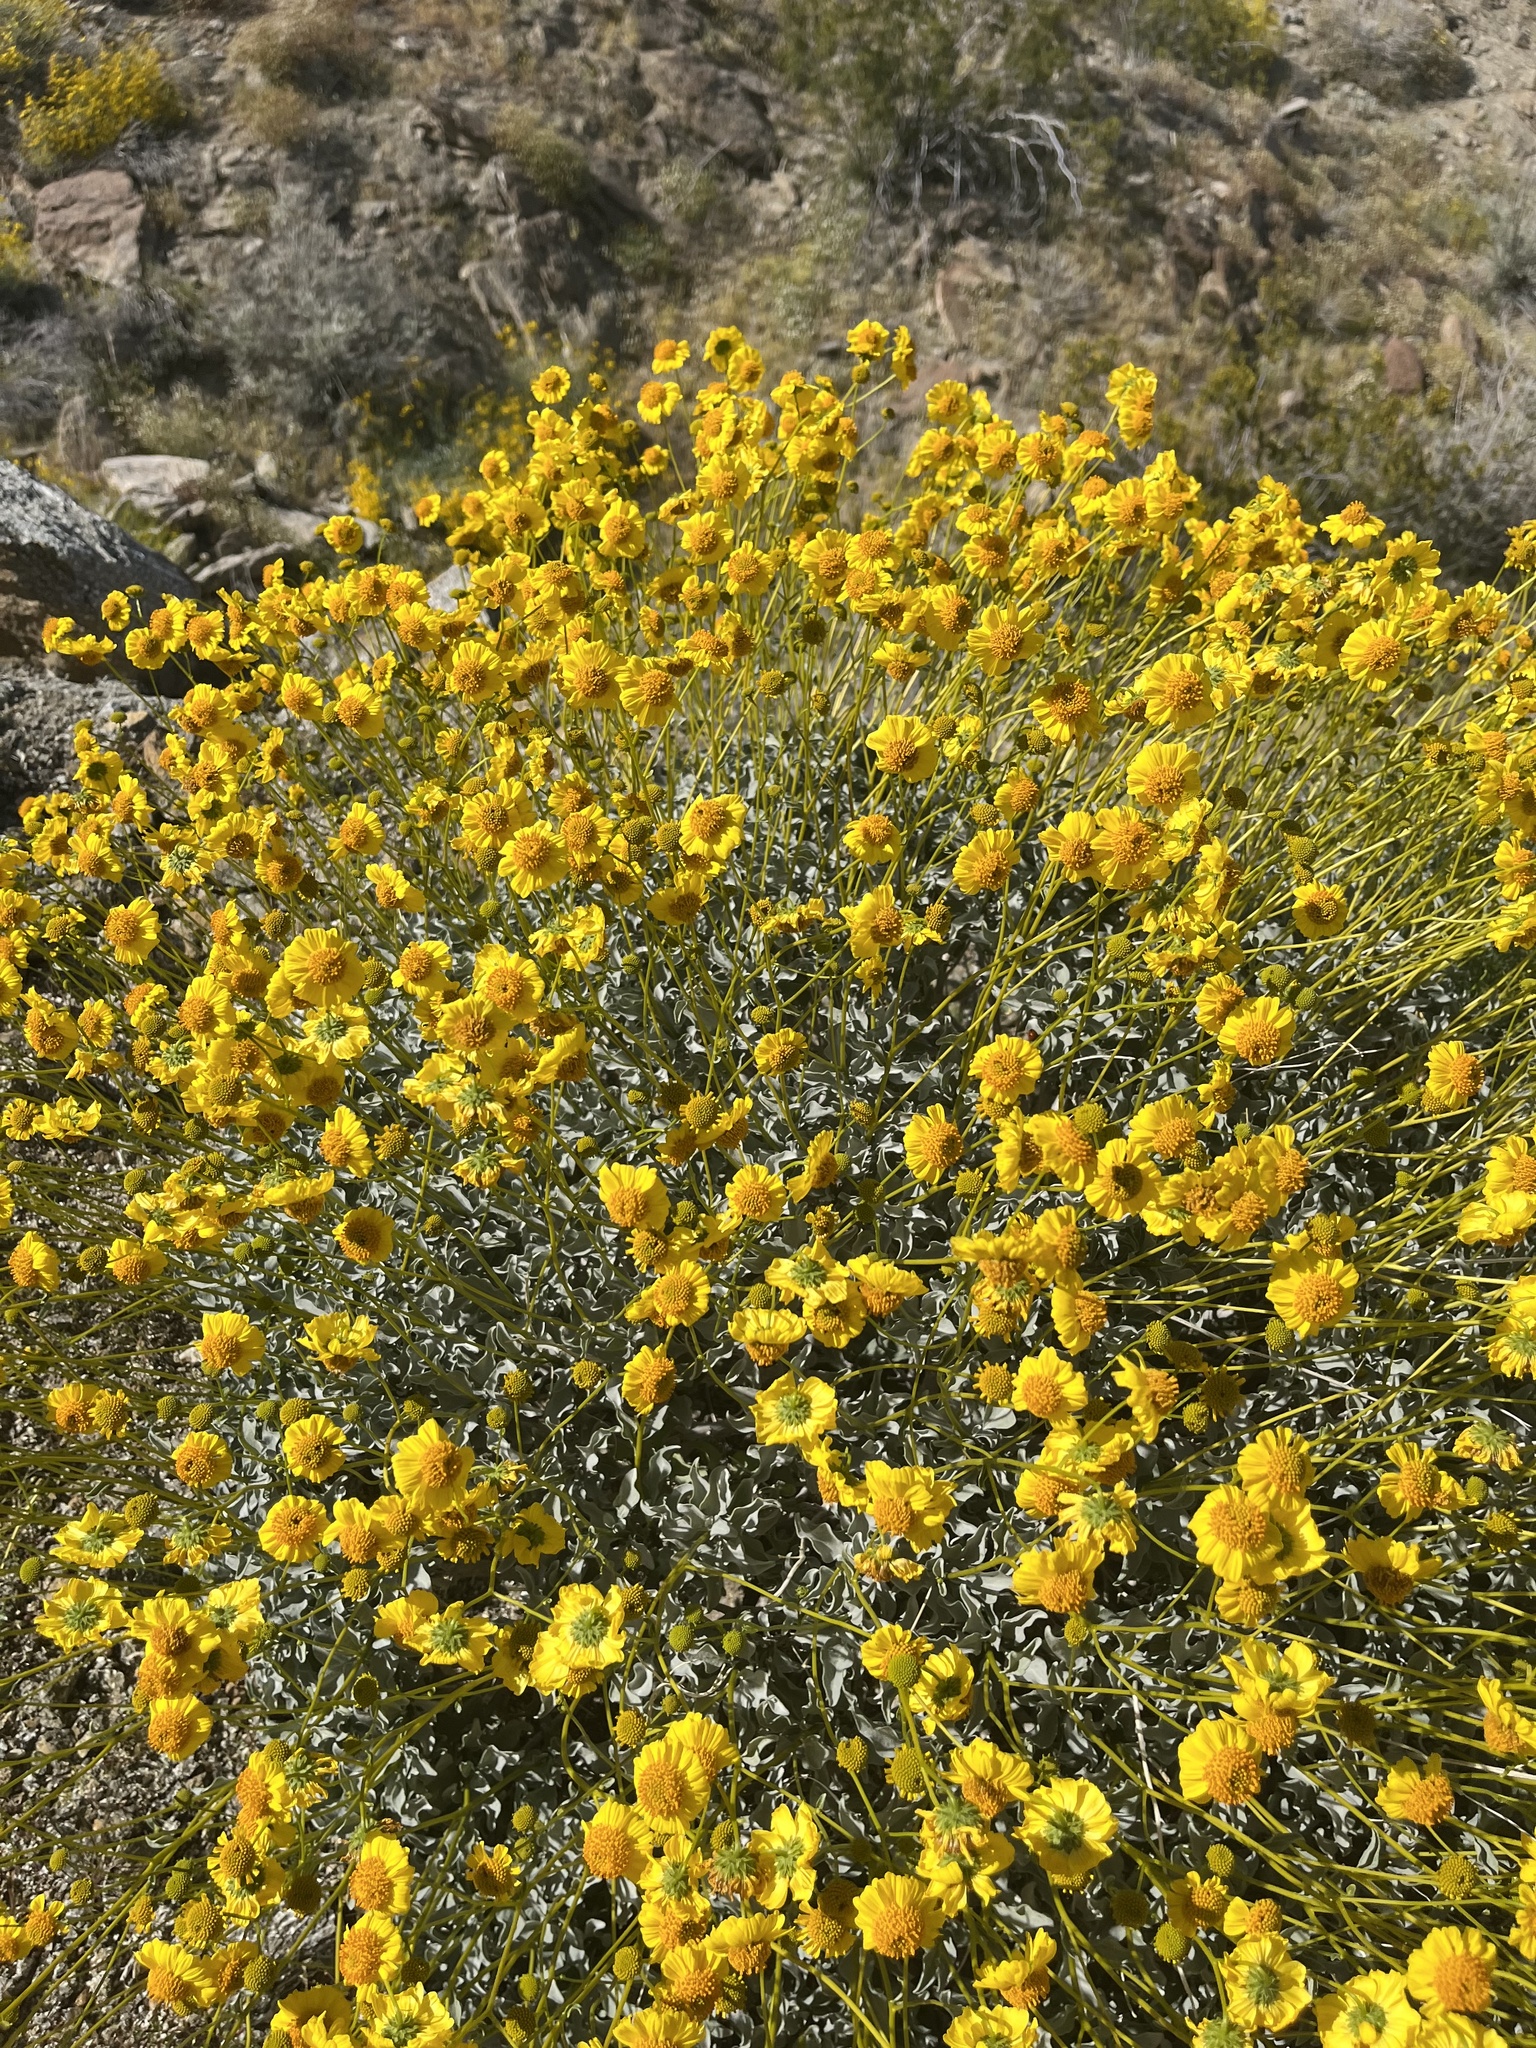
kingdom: Plantae
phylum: Tracheophyta
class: Magnoliopsida
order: Asterales
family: Asteraceae
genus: Encelia
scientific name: Encelia farinosa
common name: Brittlebush
